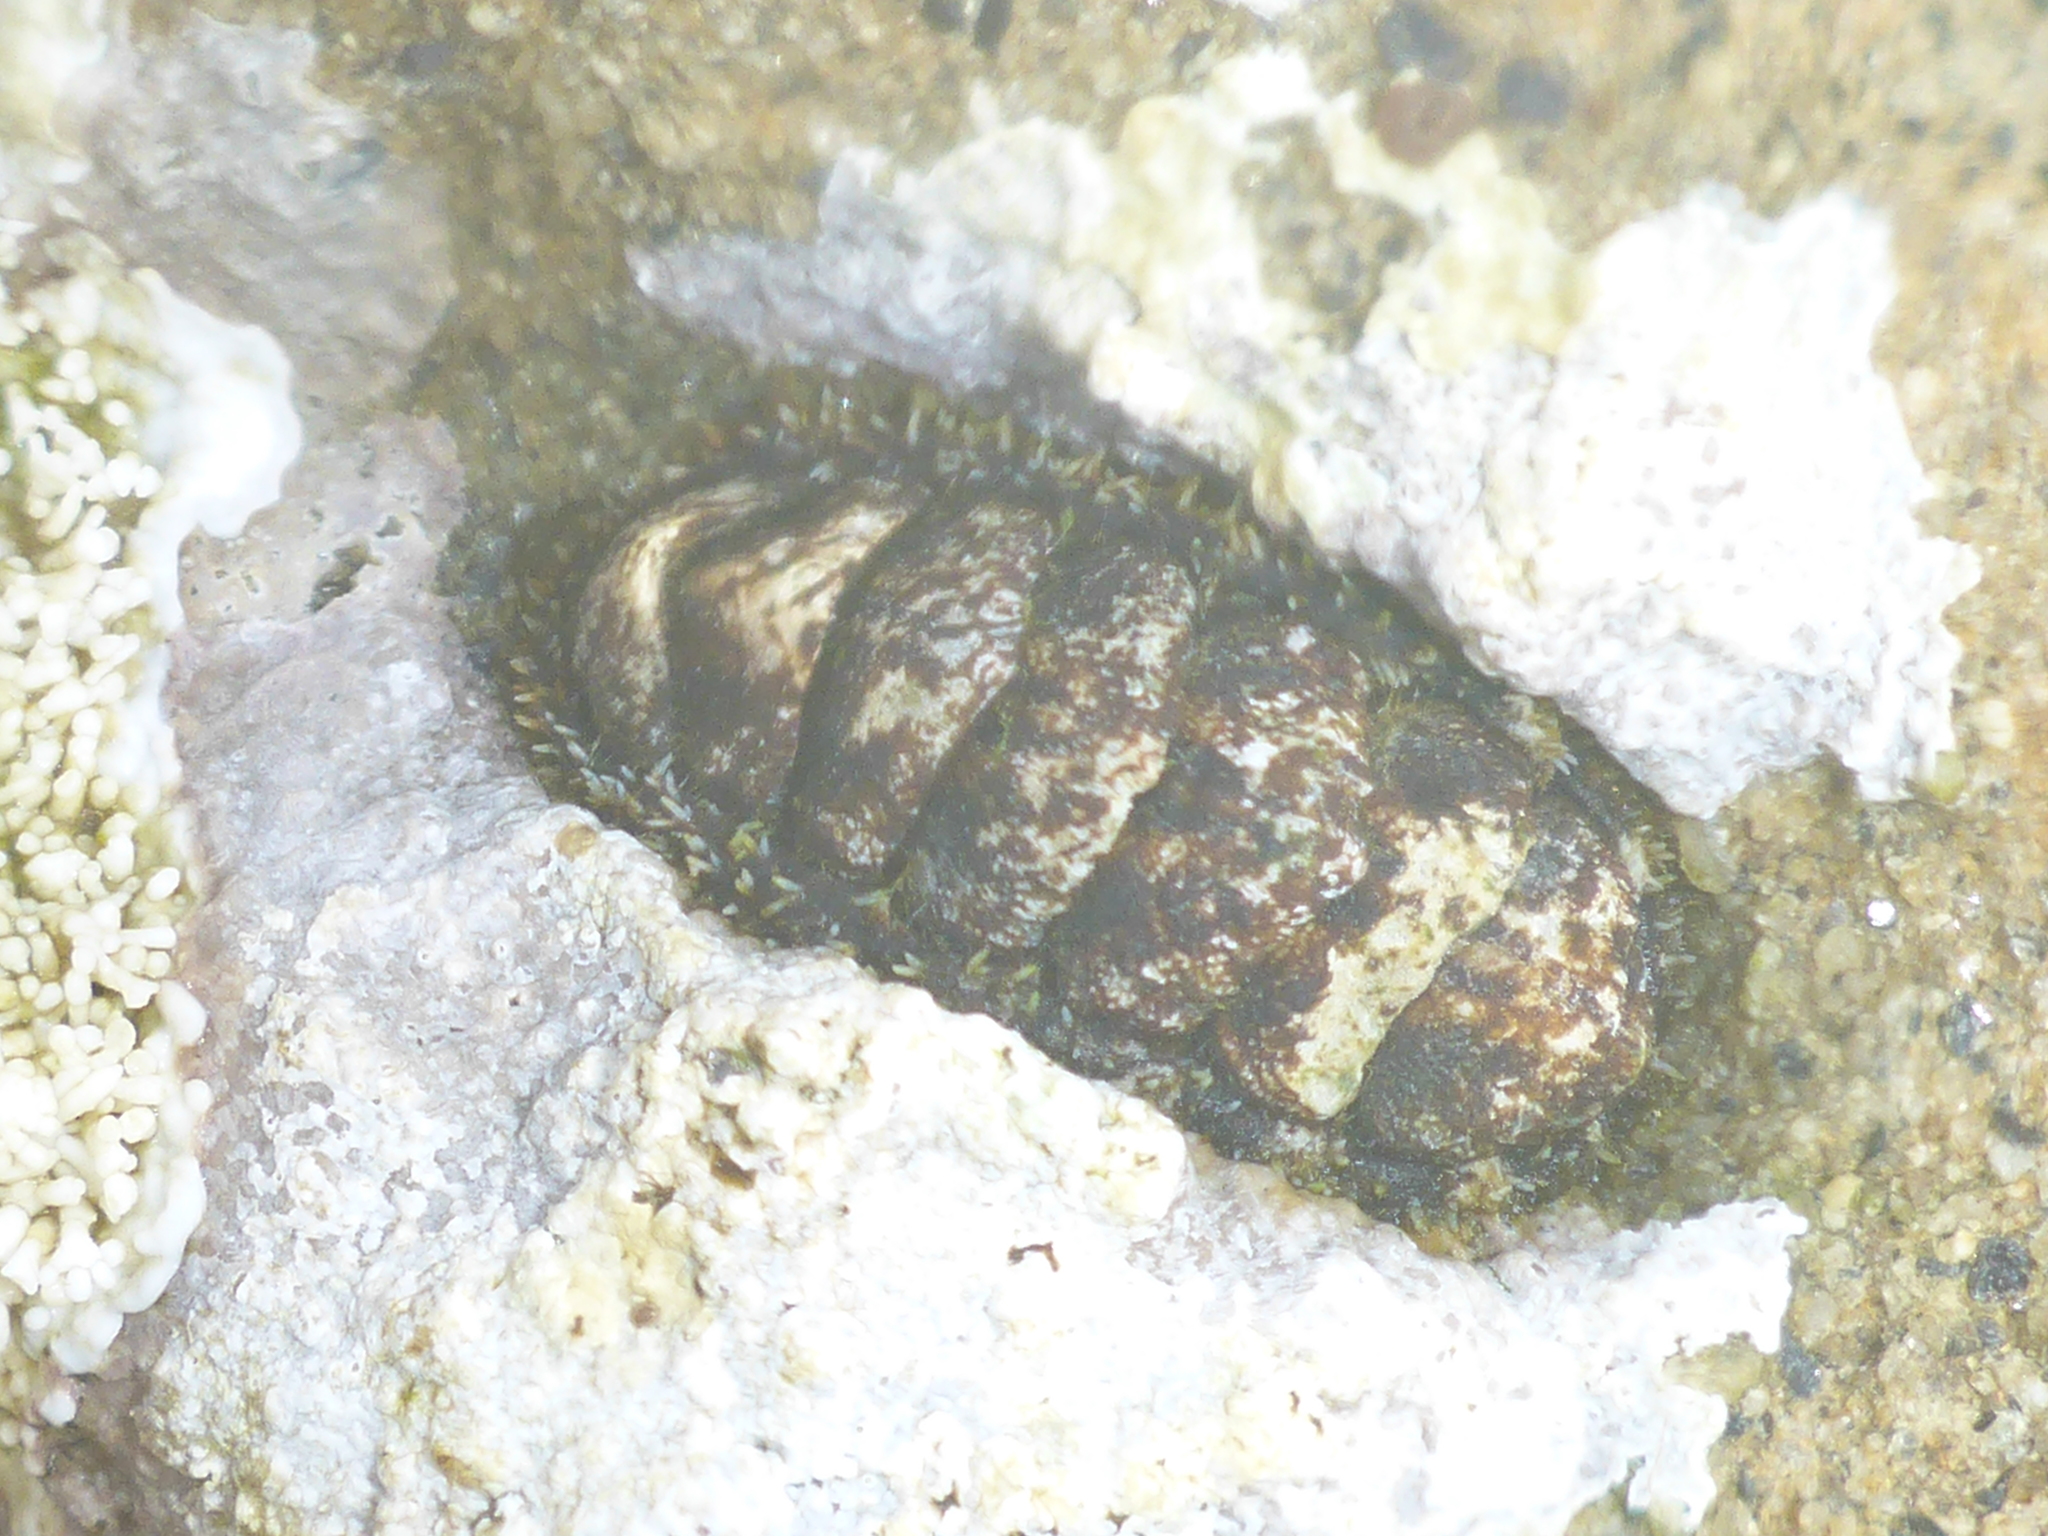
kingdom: Animalia
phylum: Mollusca
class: Polyplacophora
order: Chitonida
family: Tonicellidae
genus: Nuttallina
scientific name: Nuttallina californica
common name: California nuttall chiton
